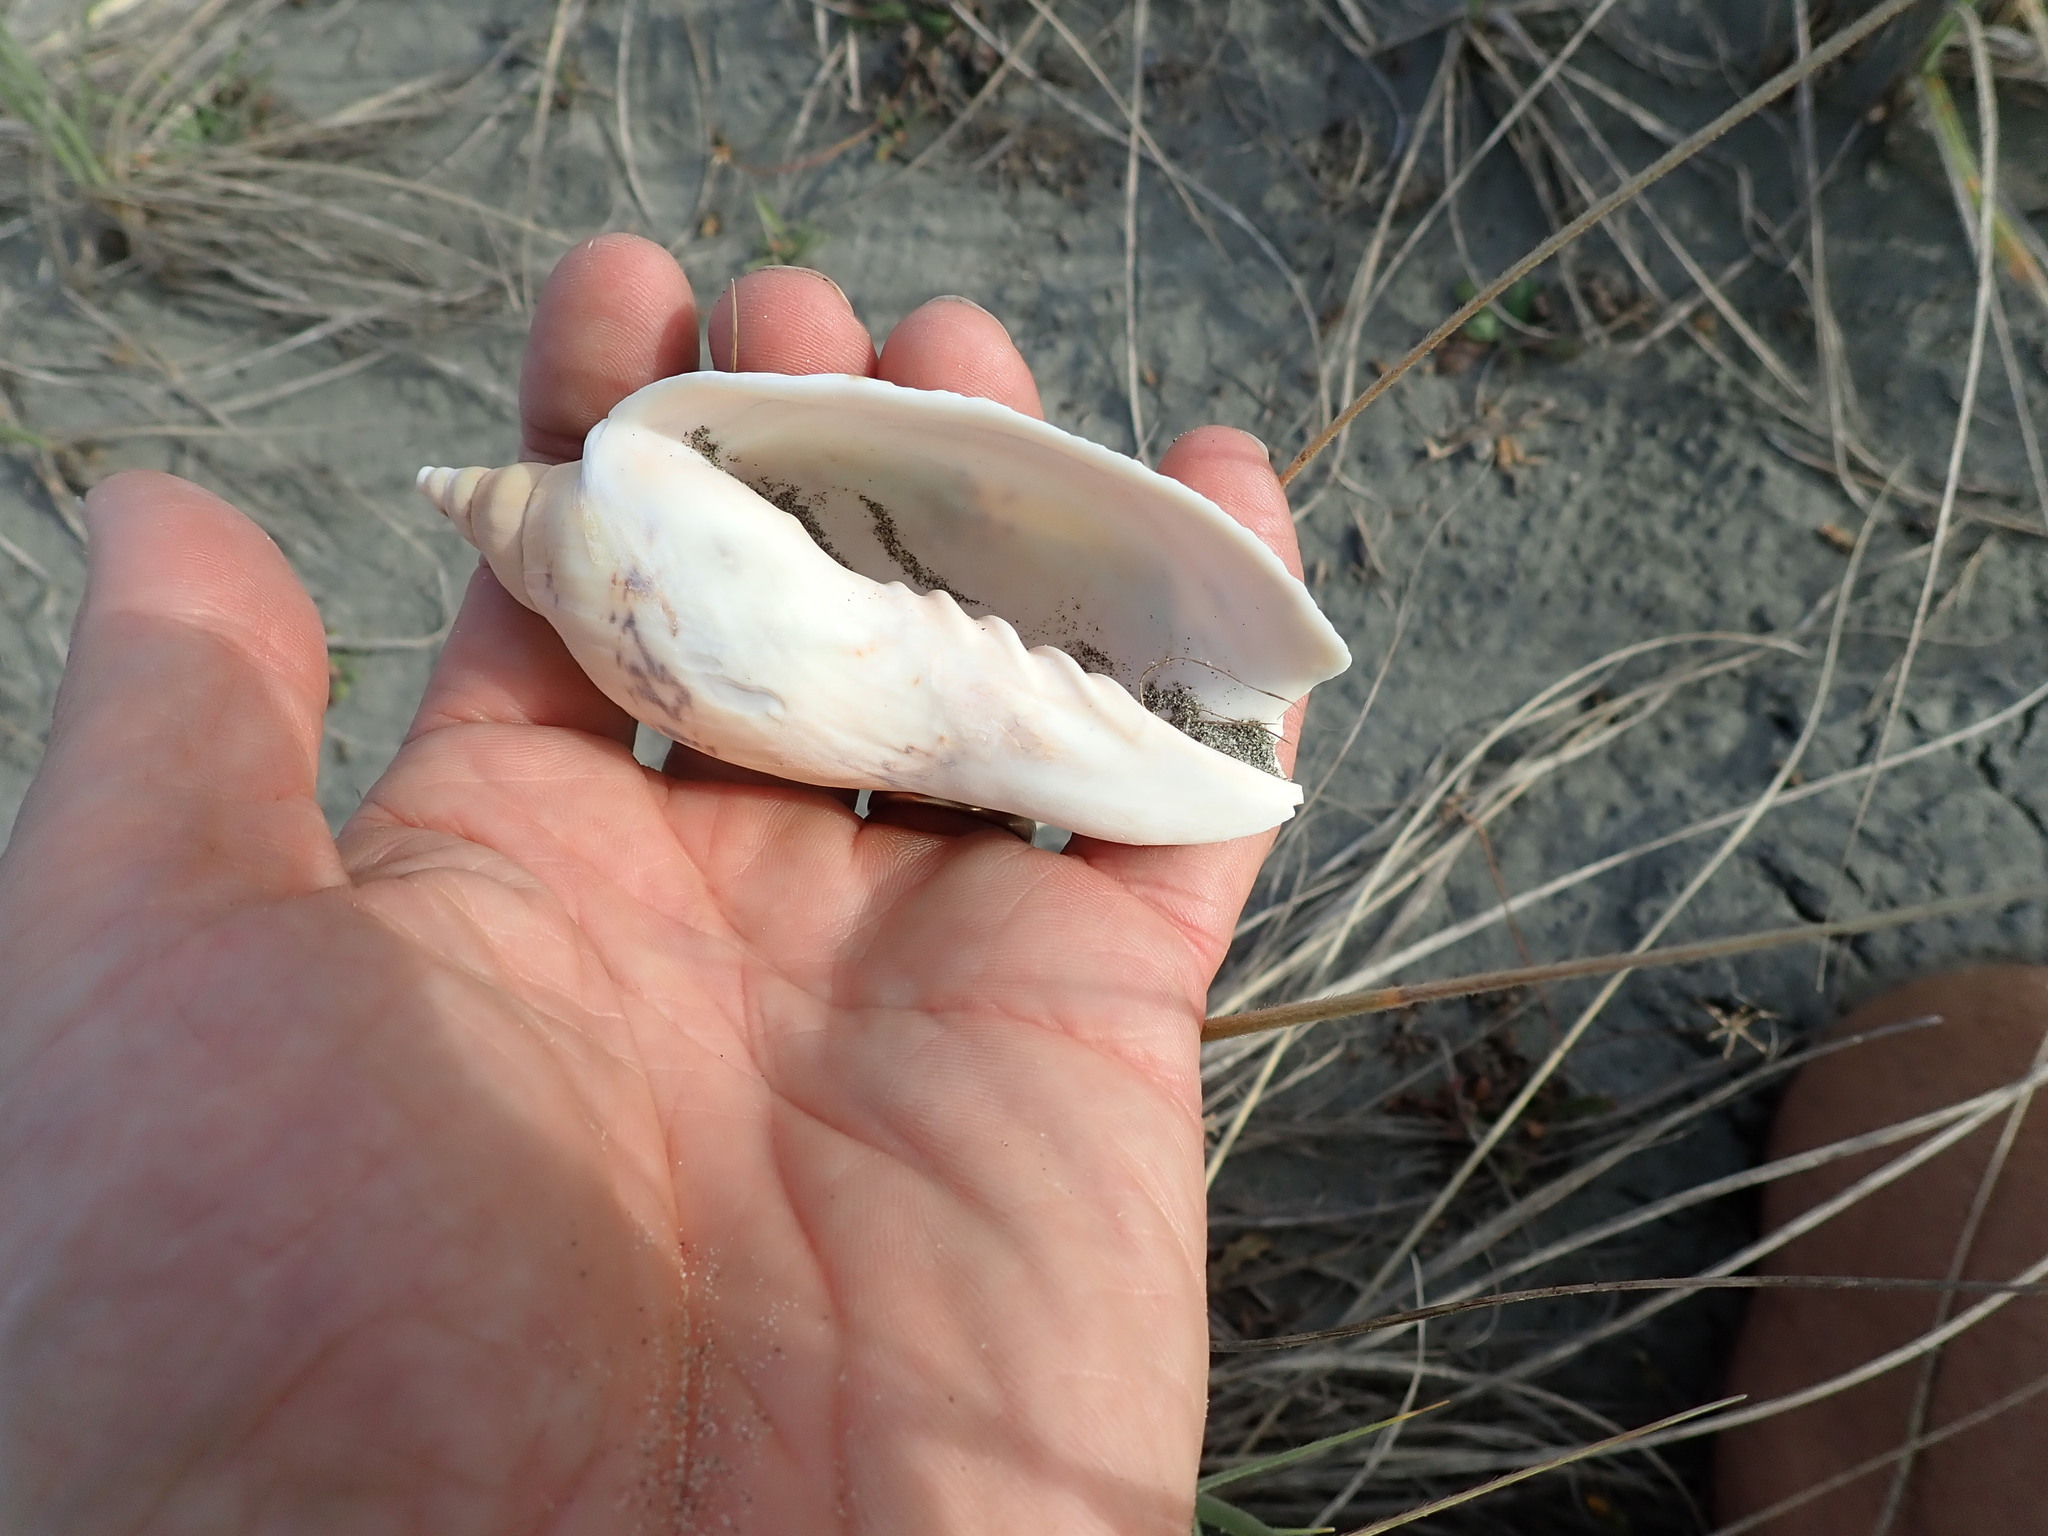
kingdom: Animalia
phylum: Mollusca
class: Gastropoda
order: Neogastropoda
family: Volutidae
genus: Alcithoe
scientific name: Alcithoe arabica
